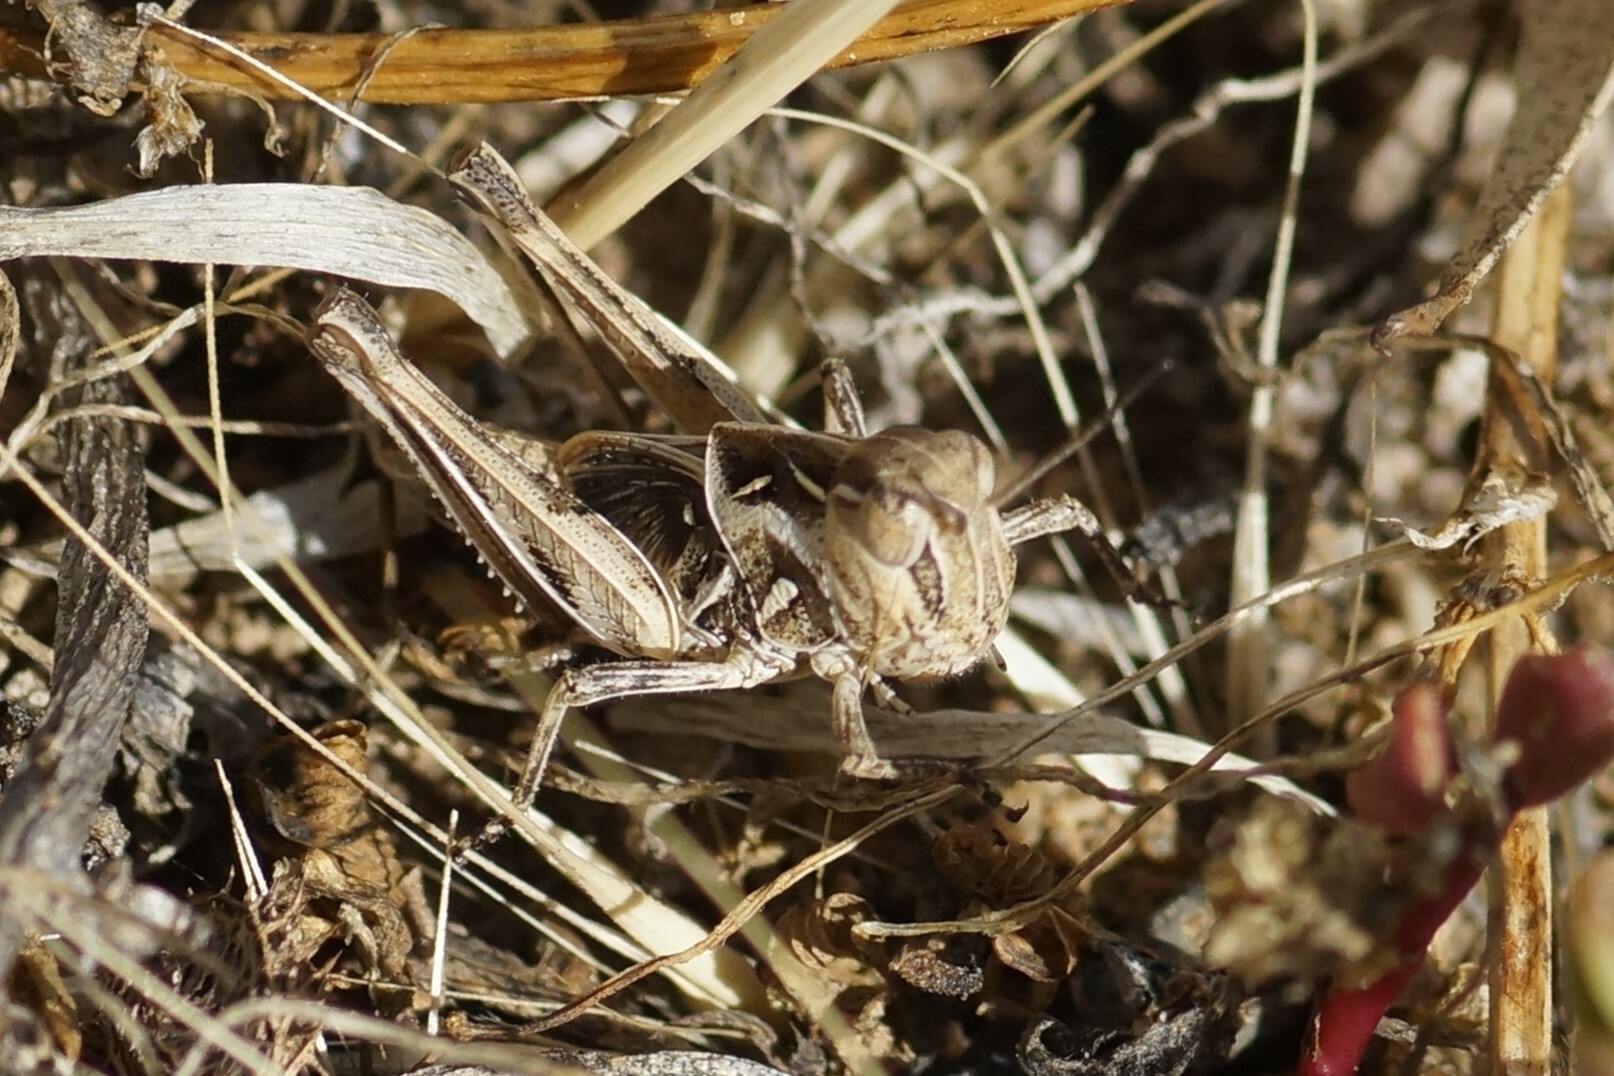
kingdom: Animalia
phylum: Arthropoda
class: Insecta
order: Orthoptera
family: Acrididae
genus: Oedaleus
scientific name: Oedaleus australis
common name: Eastern oedaleus
